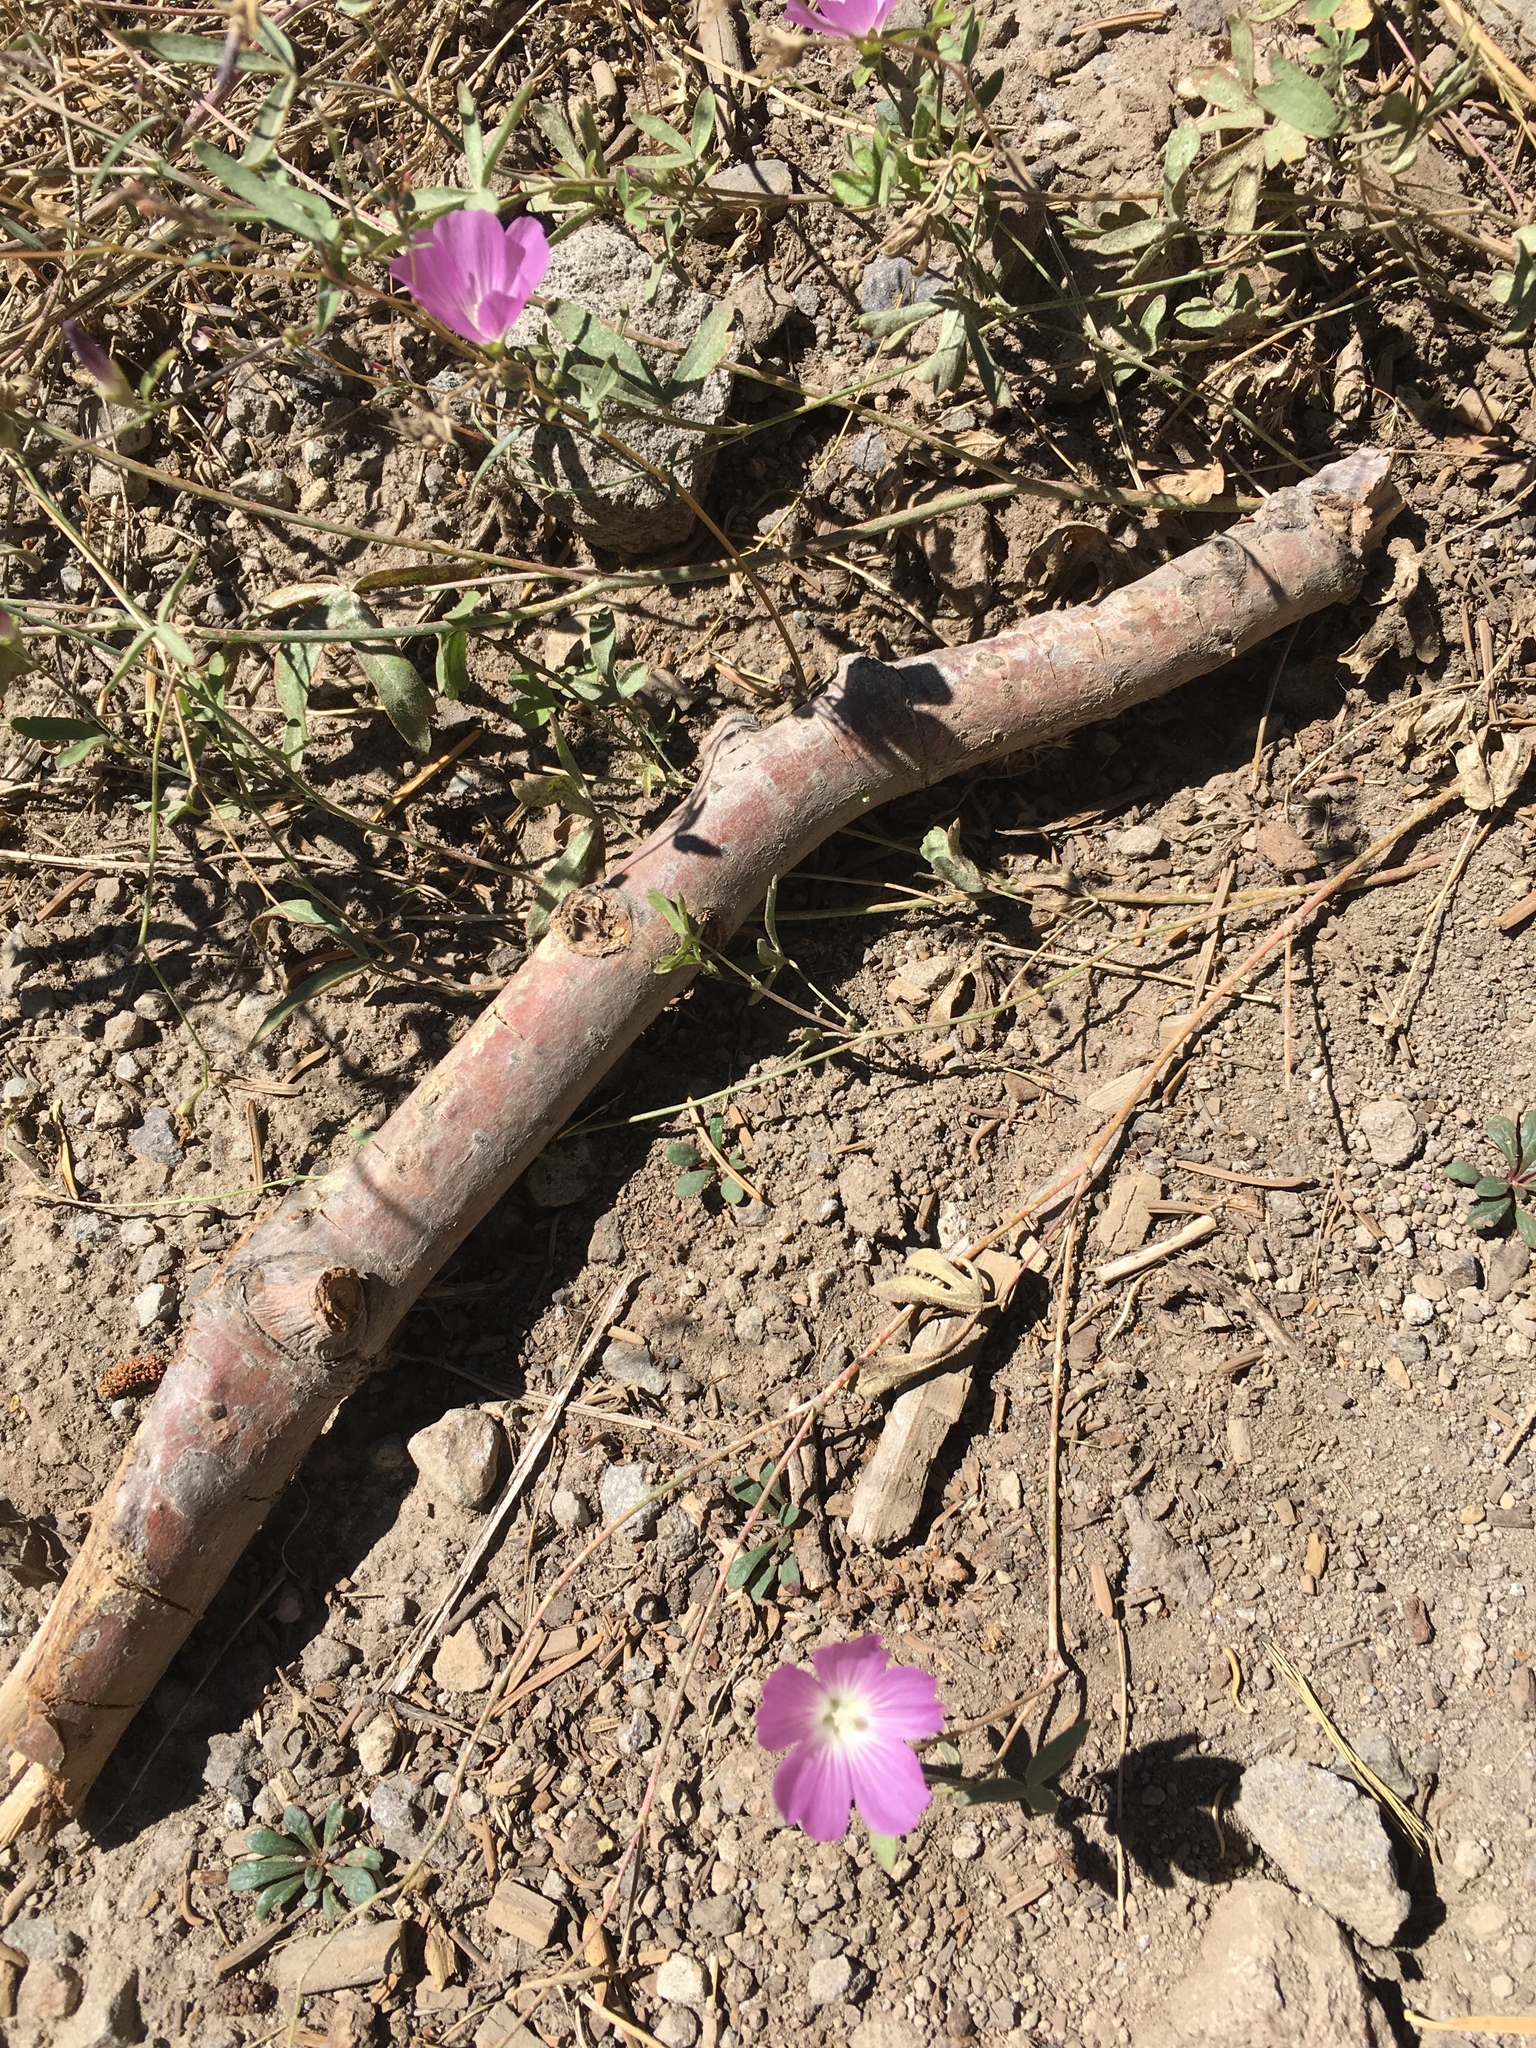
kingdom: Plantae
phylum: Tracheophyta
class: Magnoliopsida
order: Malvales
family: Malvaceae
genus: Sidalcea
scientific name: Sidalcea glaucescens
